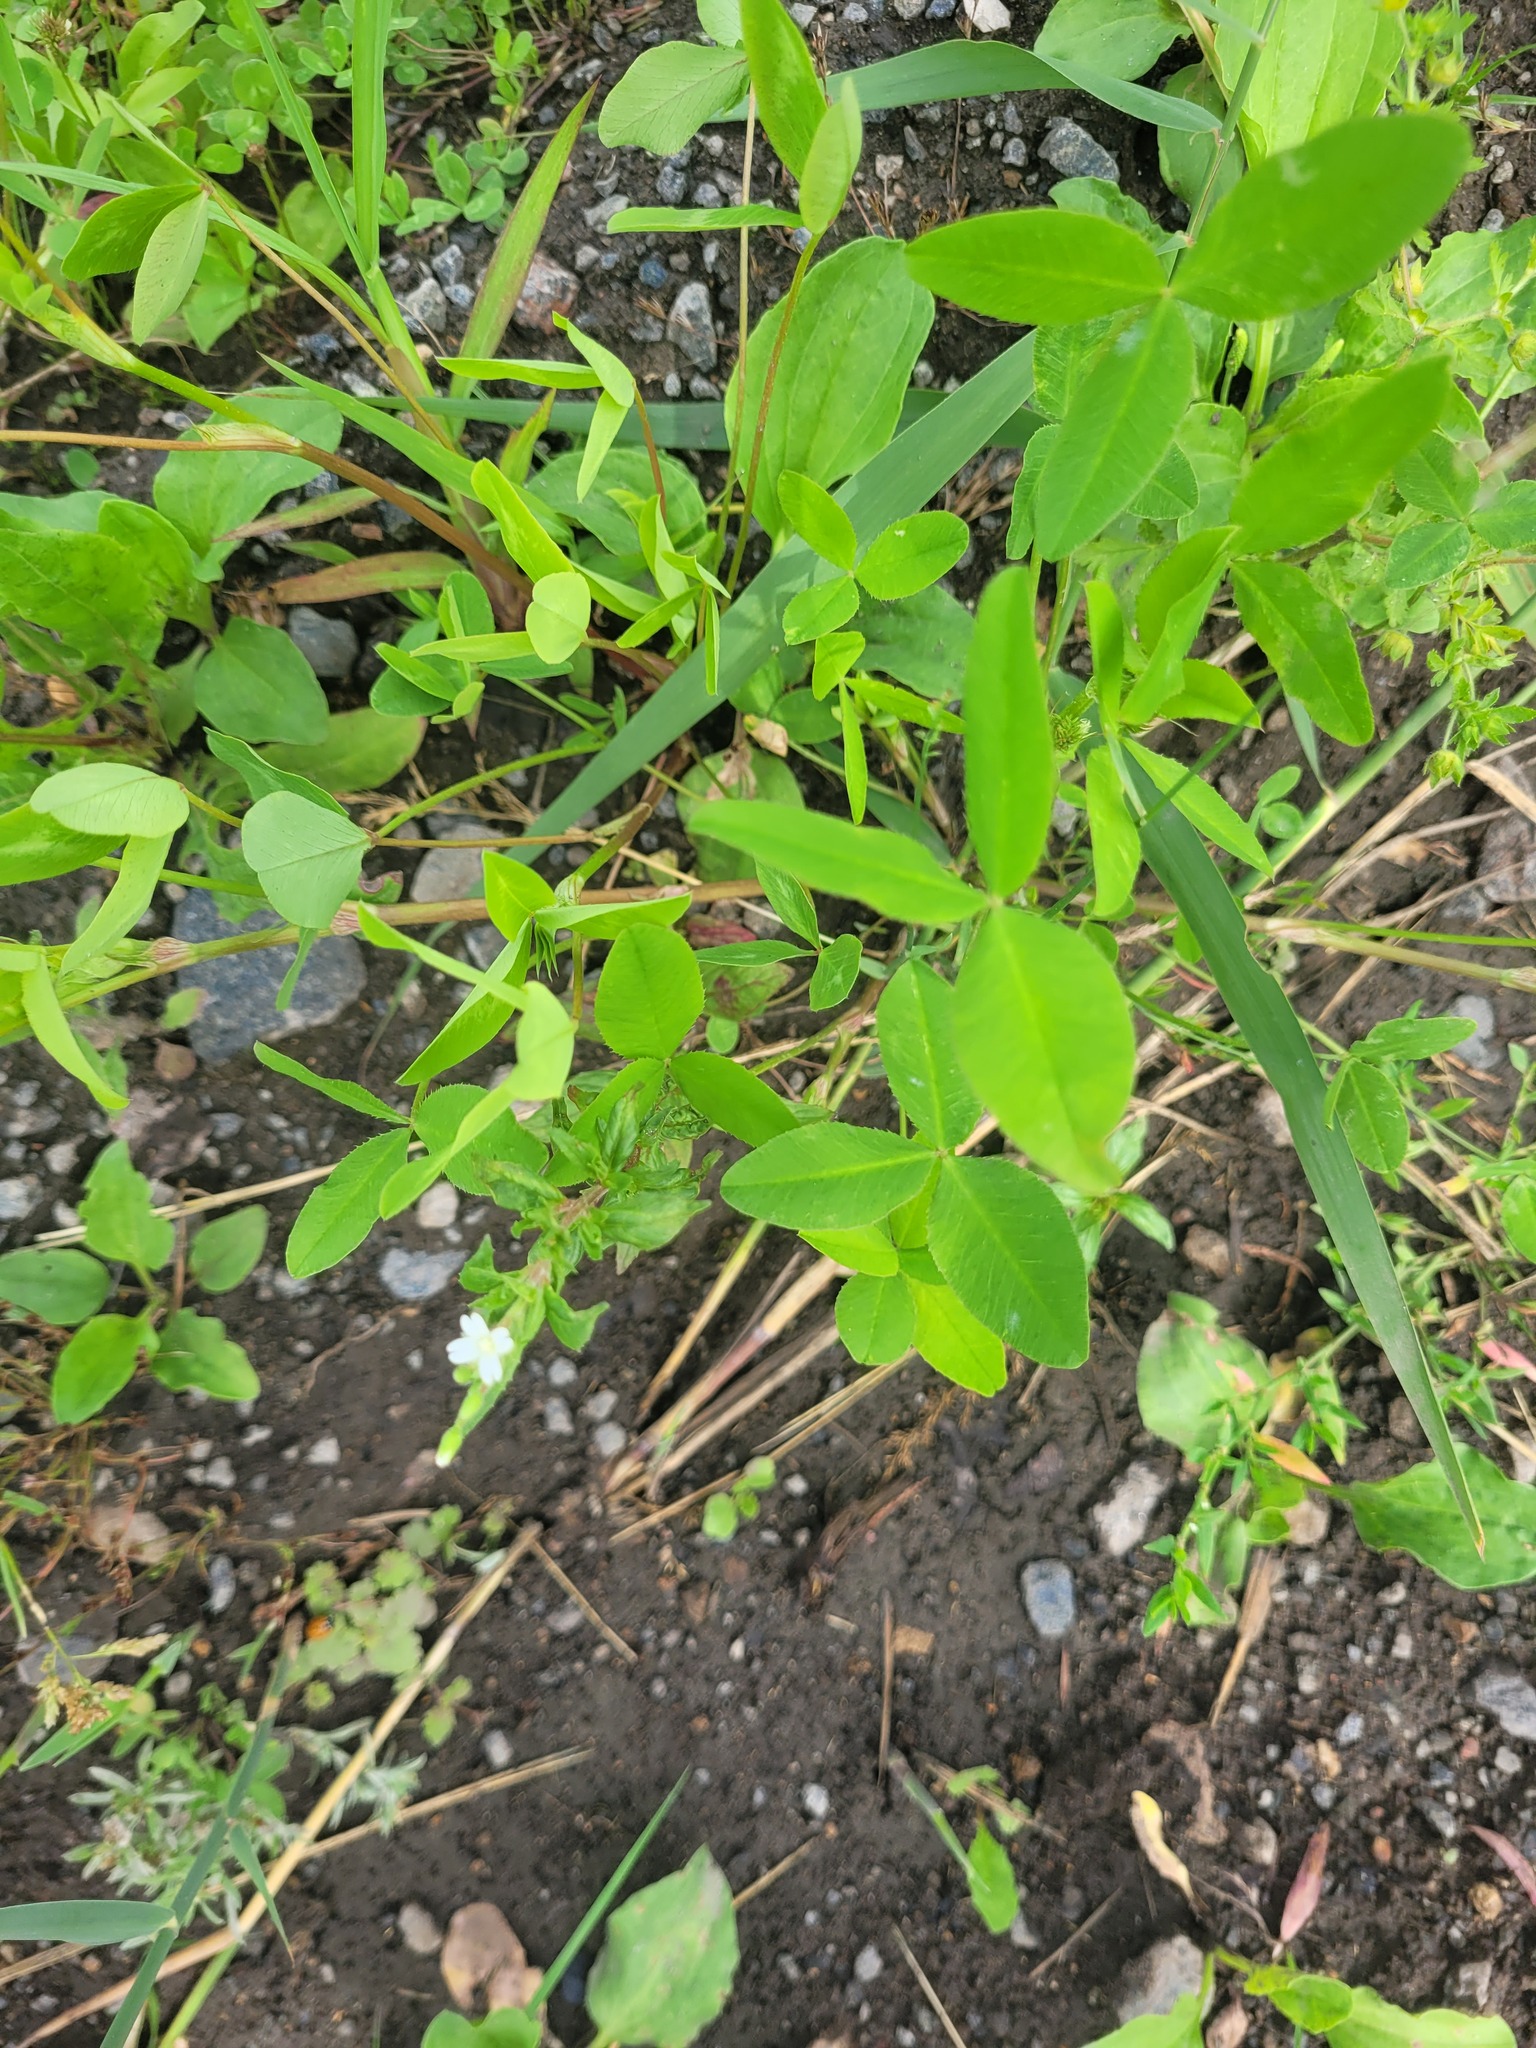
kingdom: Plantae
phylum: Tracheophyta
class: Magnoliopsida
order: Myrtales
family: Onagraceae
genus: Epilobium
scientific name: Epilobium pseudorubescens
